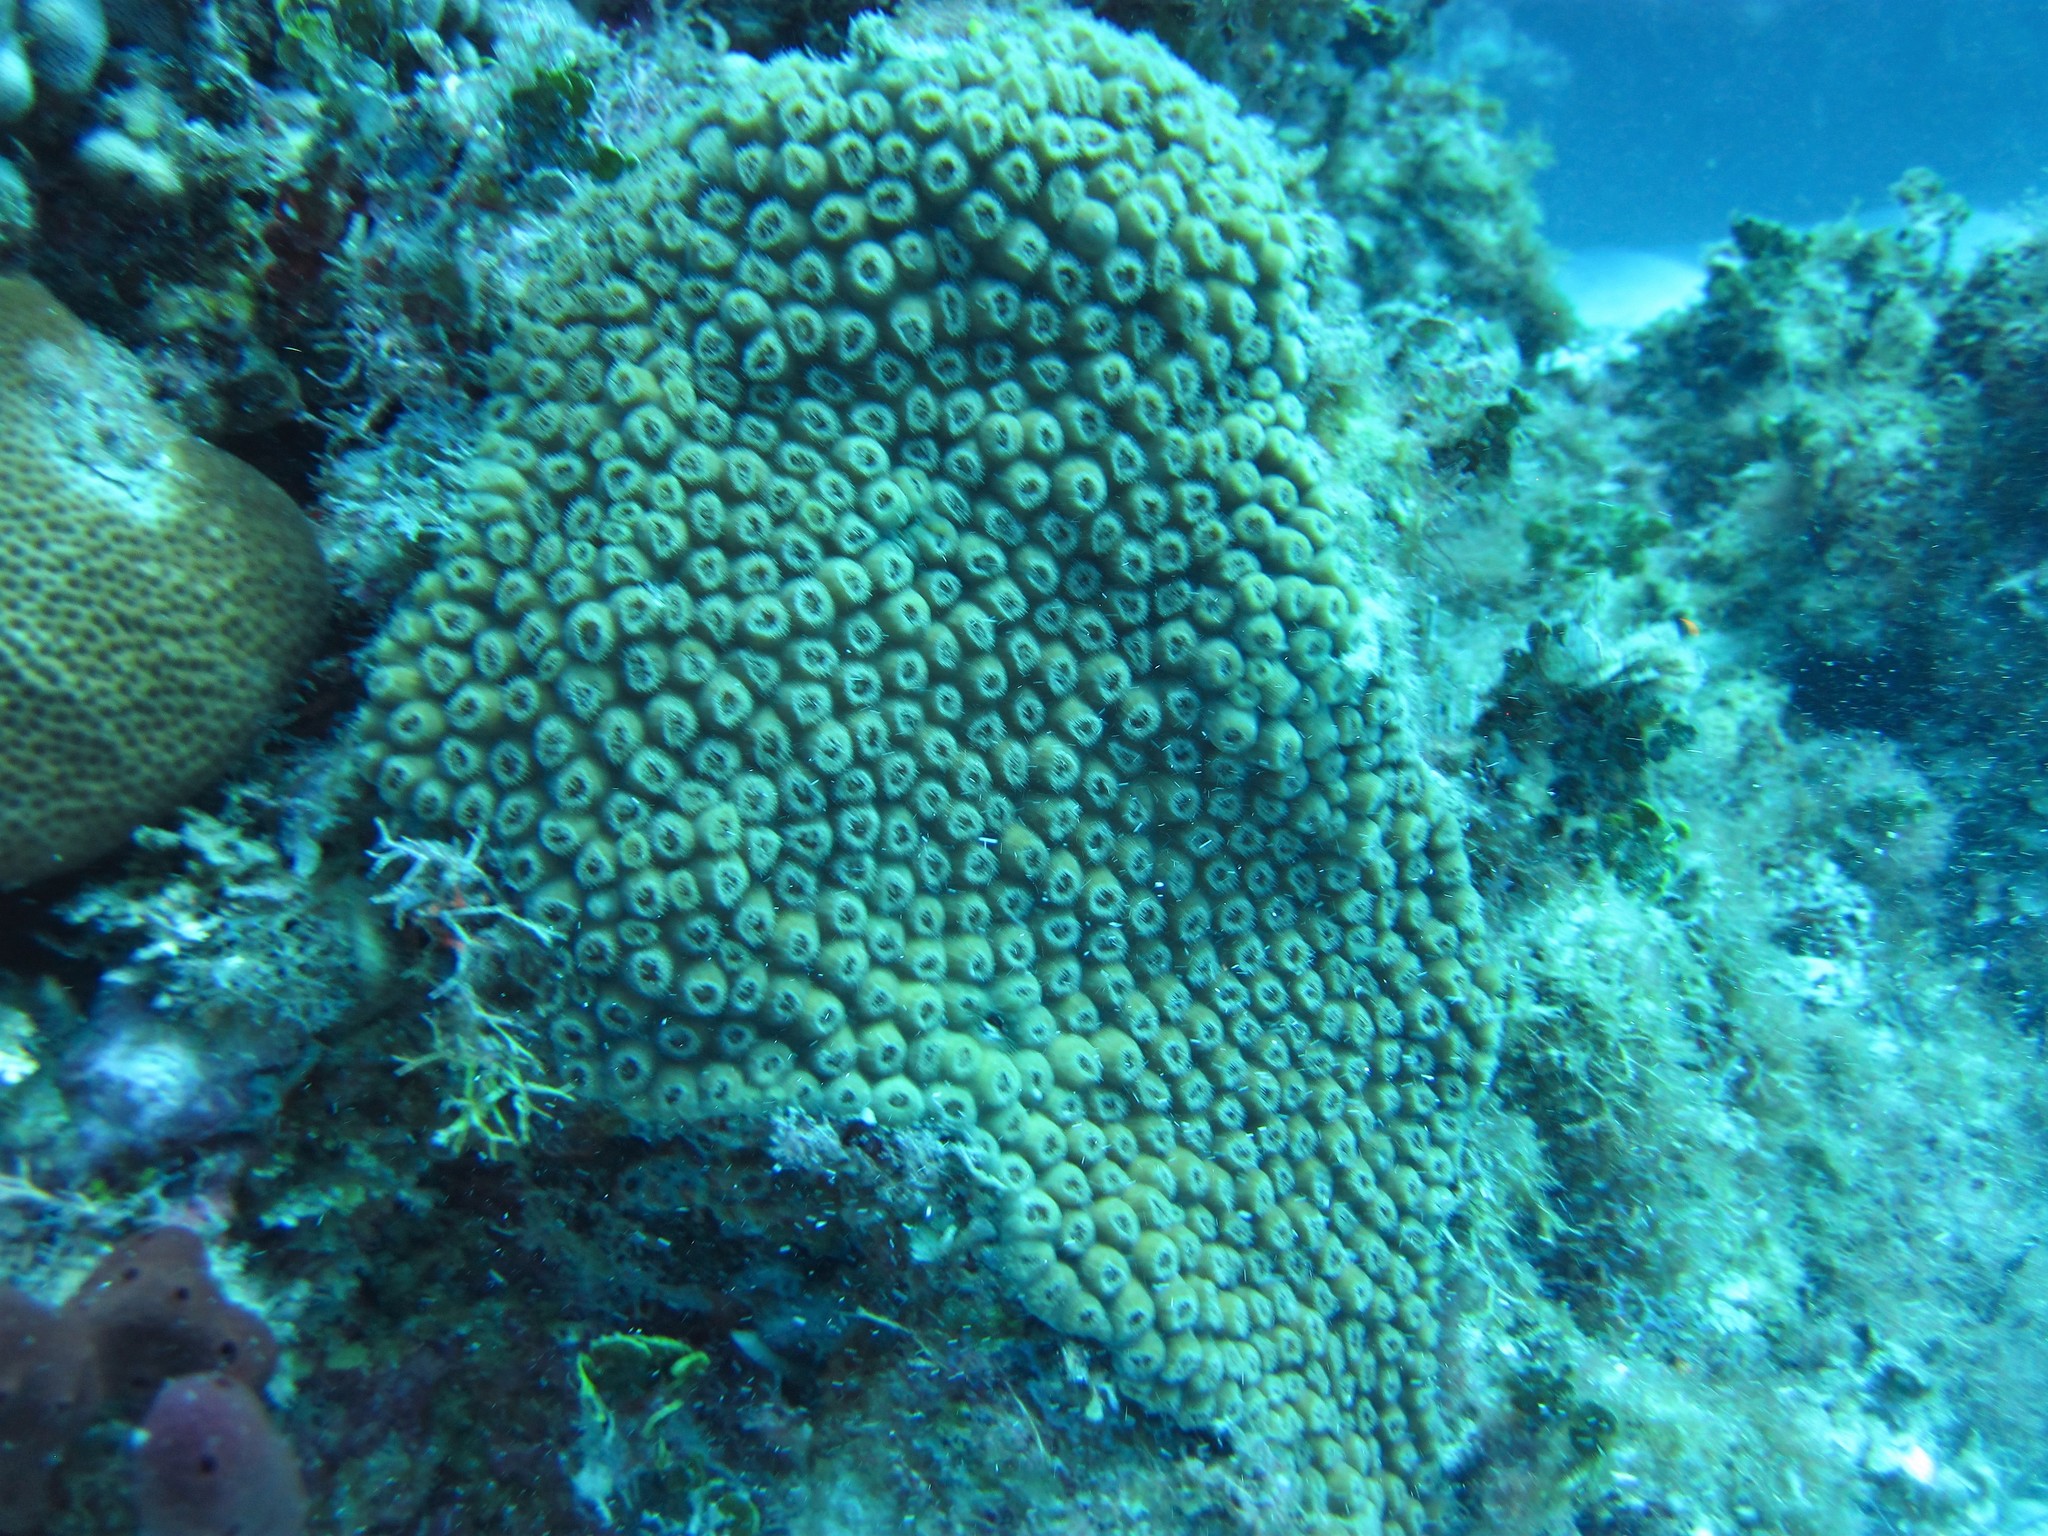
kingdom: Animalia
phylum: Cnidaria
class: Anthozoa
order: Scleractinia
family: Montastraeidae
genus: Montastraea
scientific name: Montastraea cavernosa
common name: Great star coral
